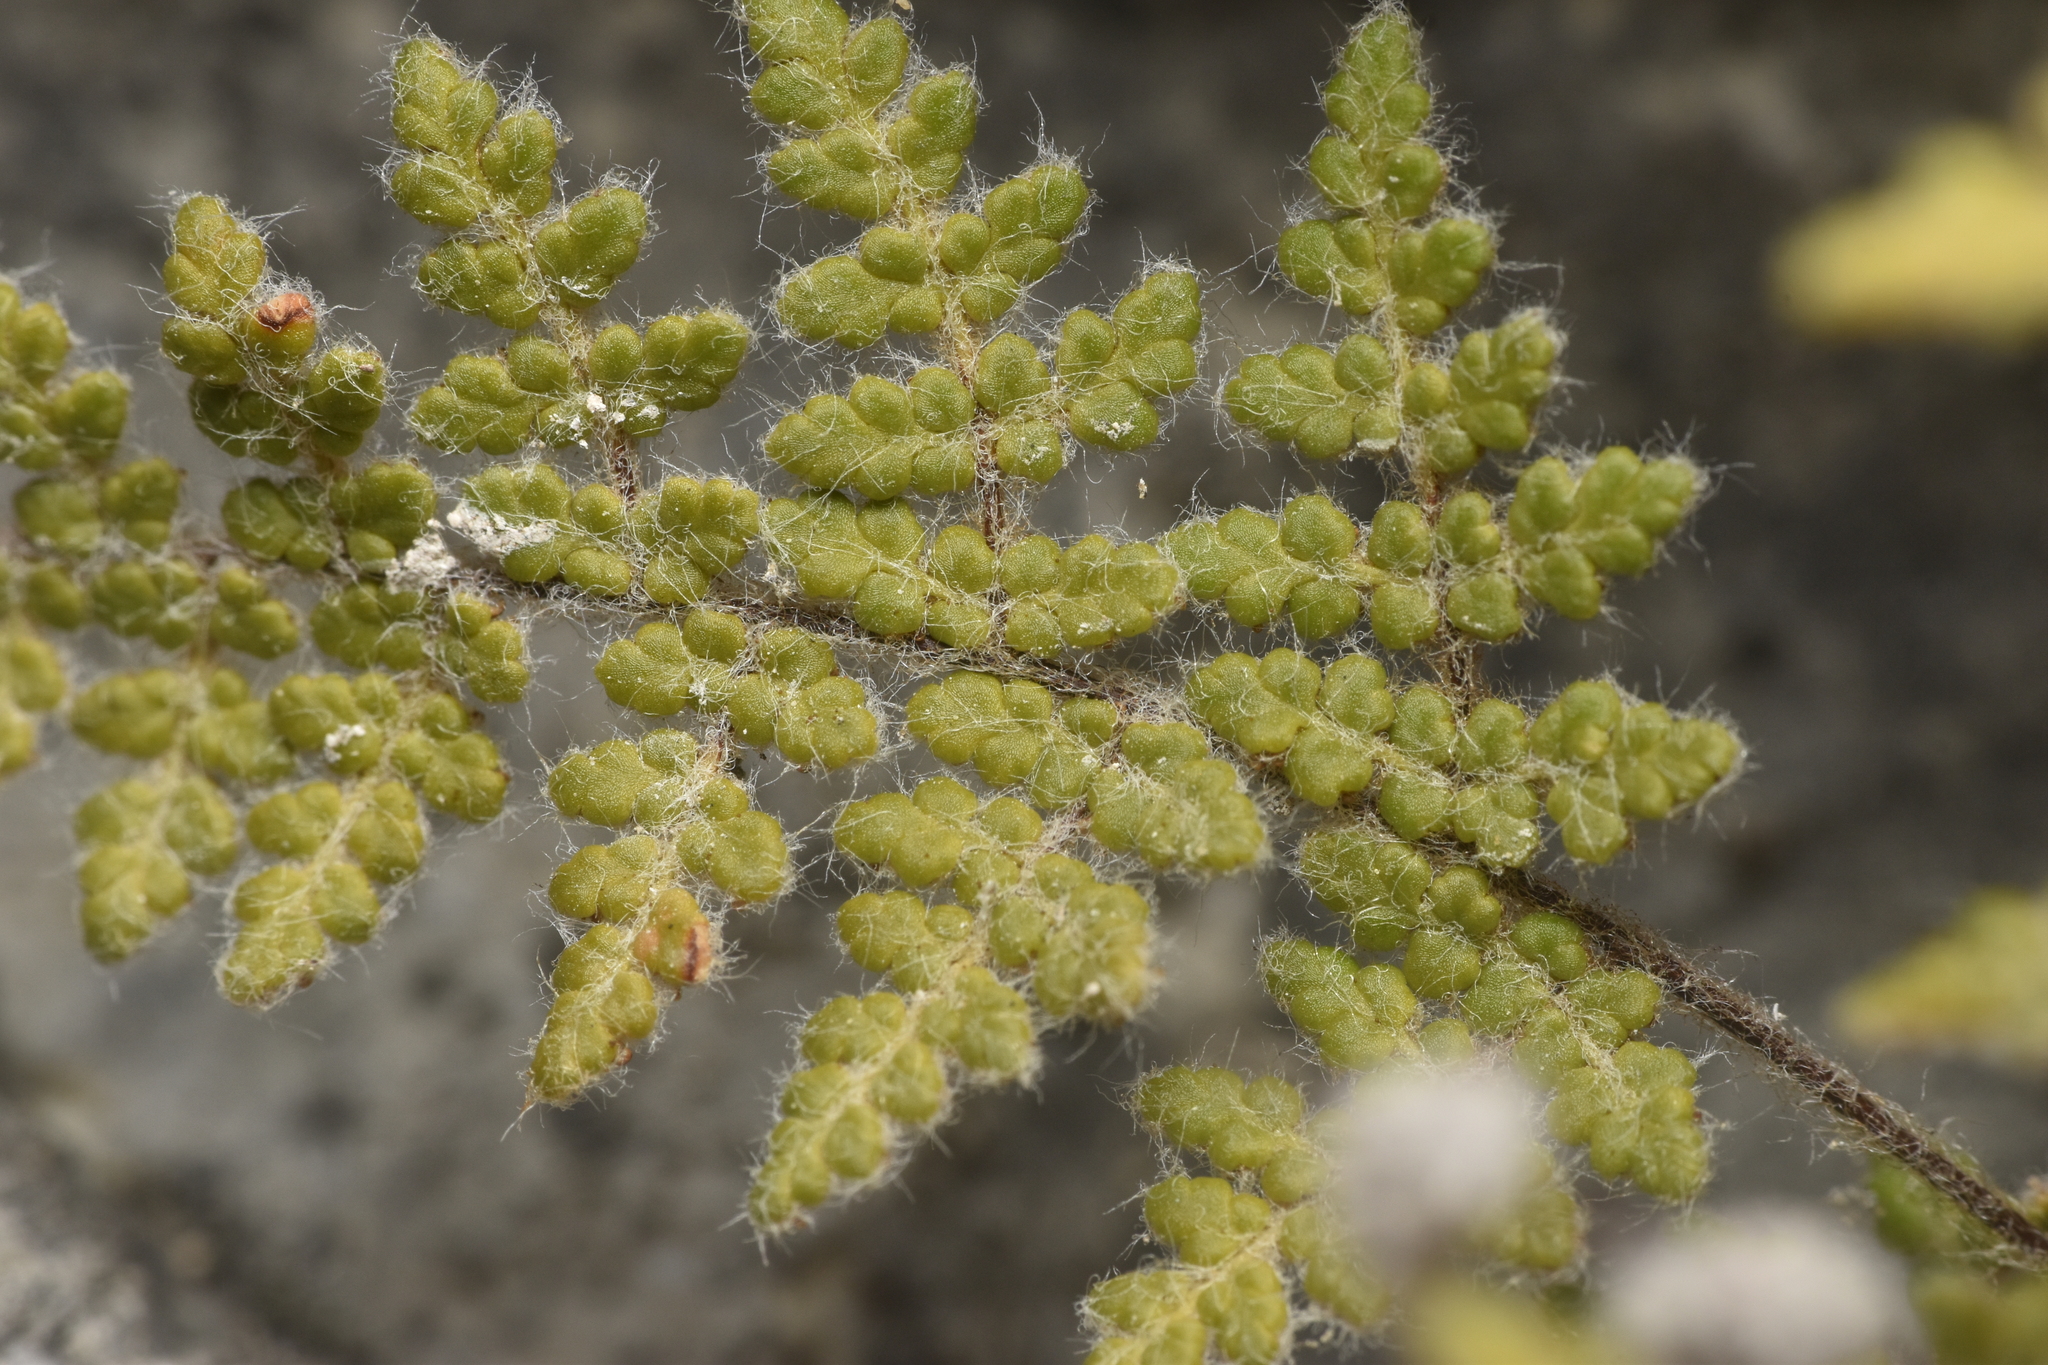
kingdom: Plantae
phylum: Tracheophyta
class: Polypodiopsida
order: Polypodiales
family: Pteridaceae
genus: Myriopteris
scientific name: Myriopteris gracilis
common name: Fee's lip fern
